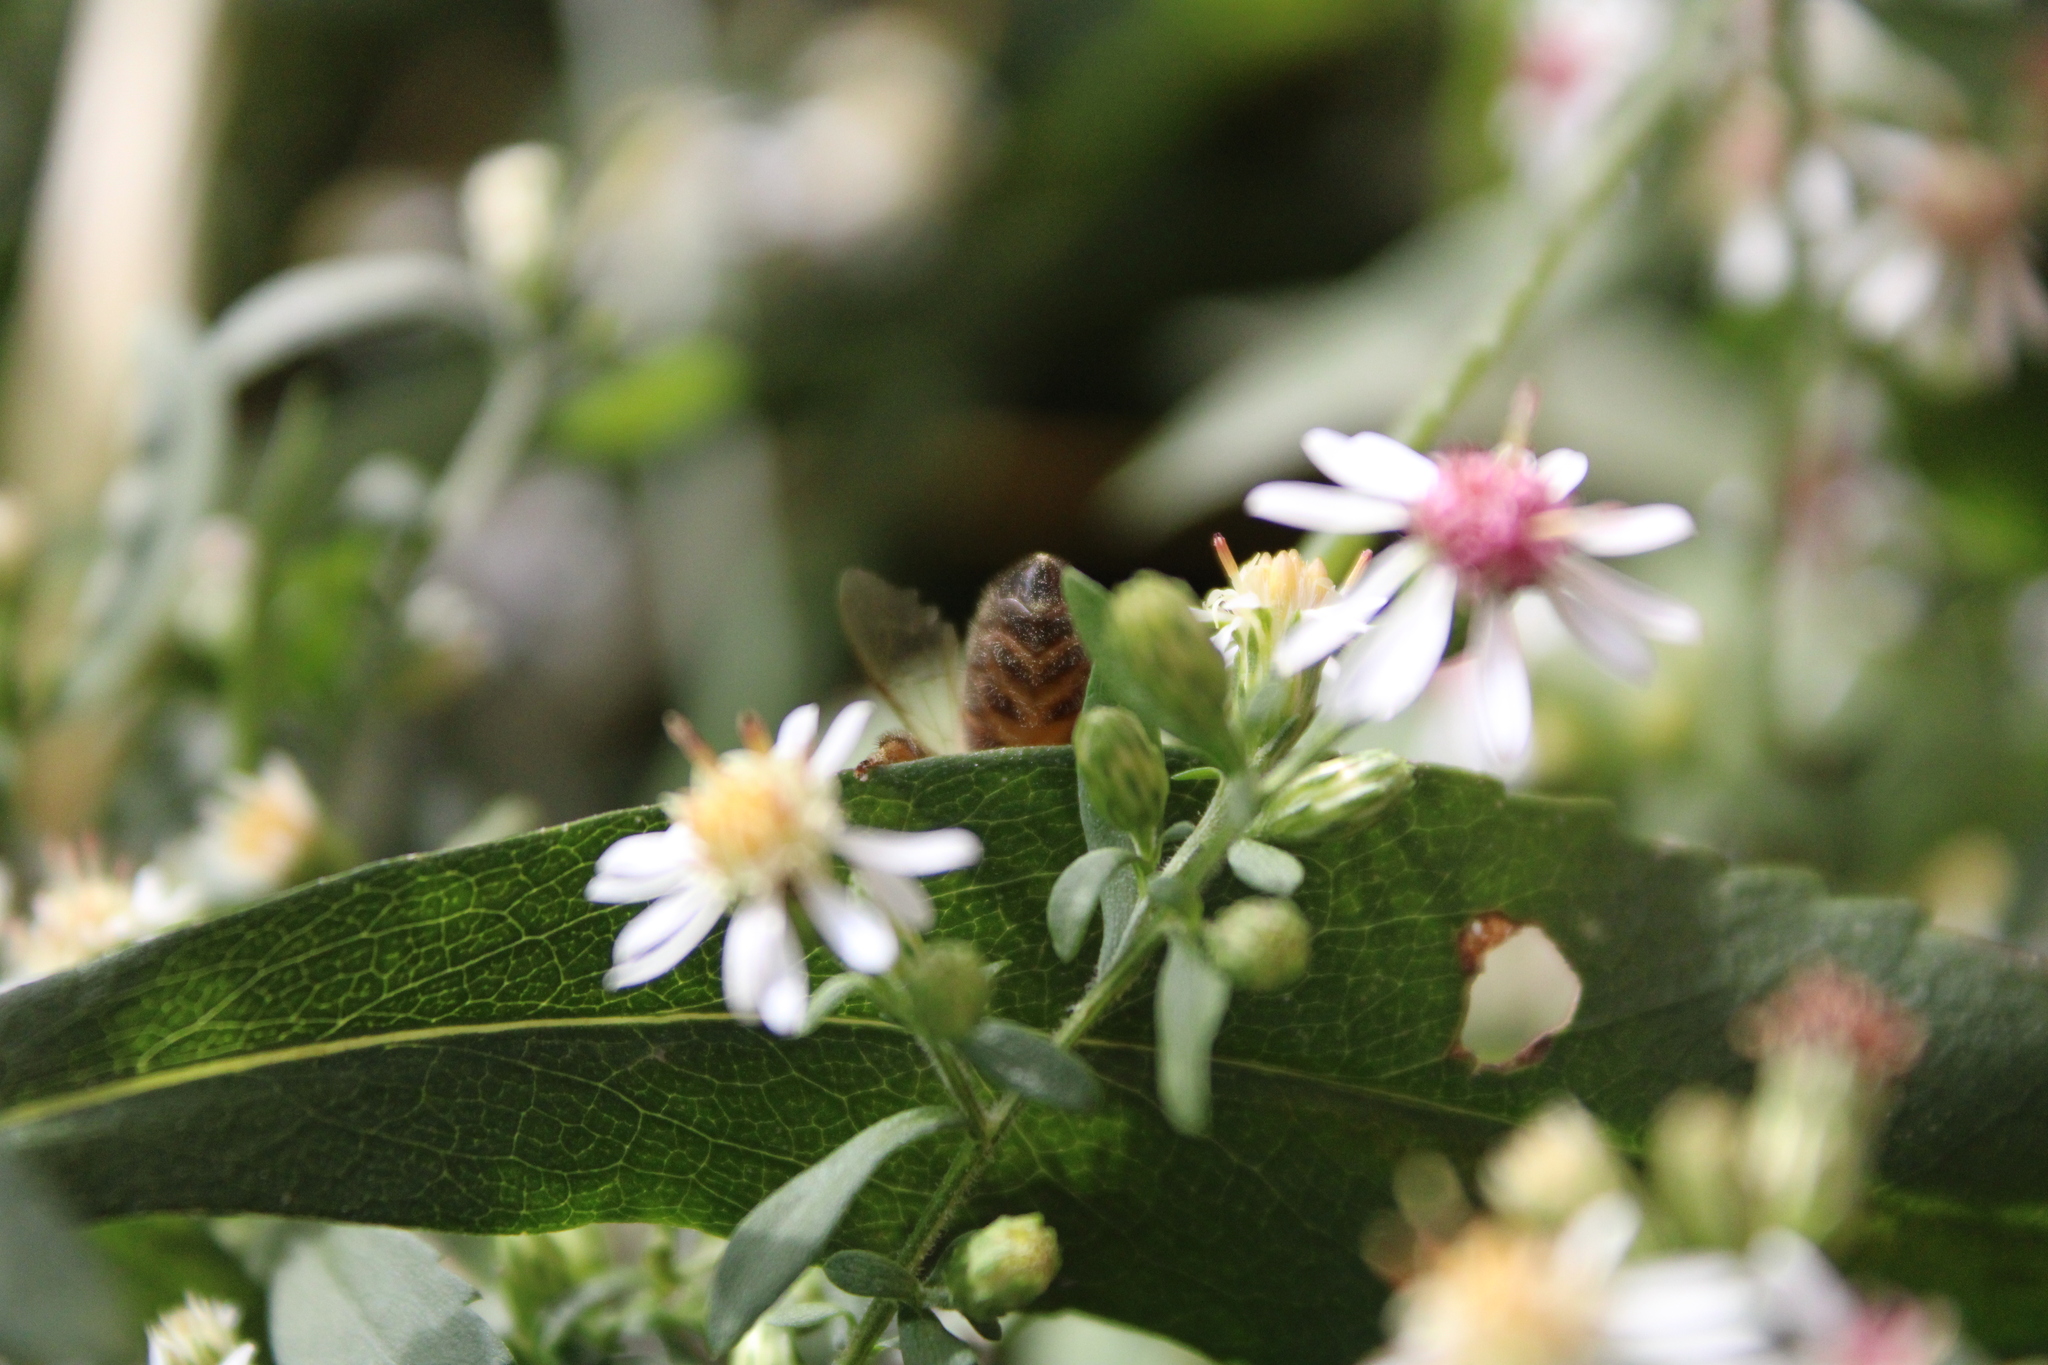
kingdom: Animalia
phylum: Arthropoda
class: Insecta
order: Hymenoptera
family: Apidae
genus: Apis
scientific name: Apis mellifera
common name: Honey bee
